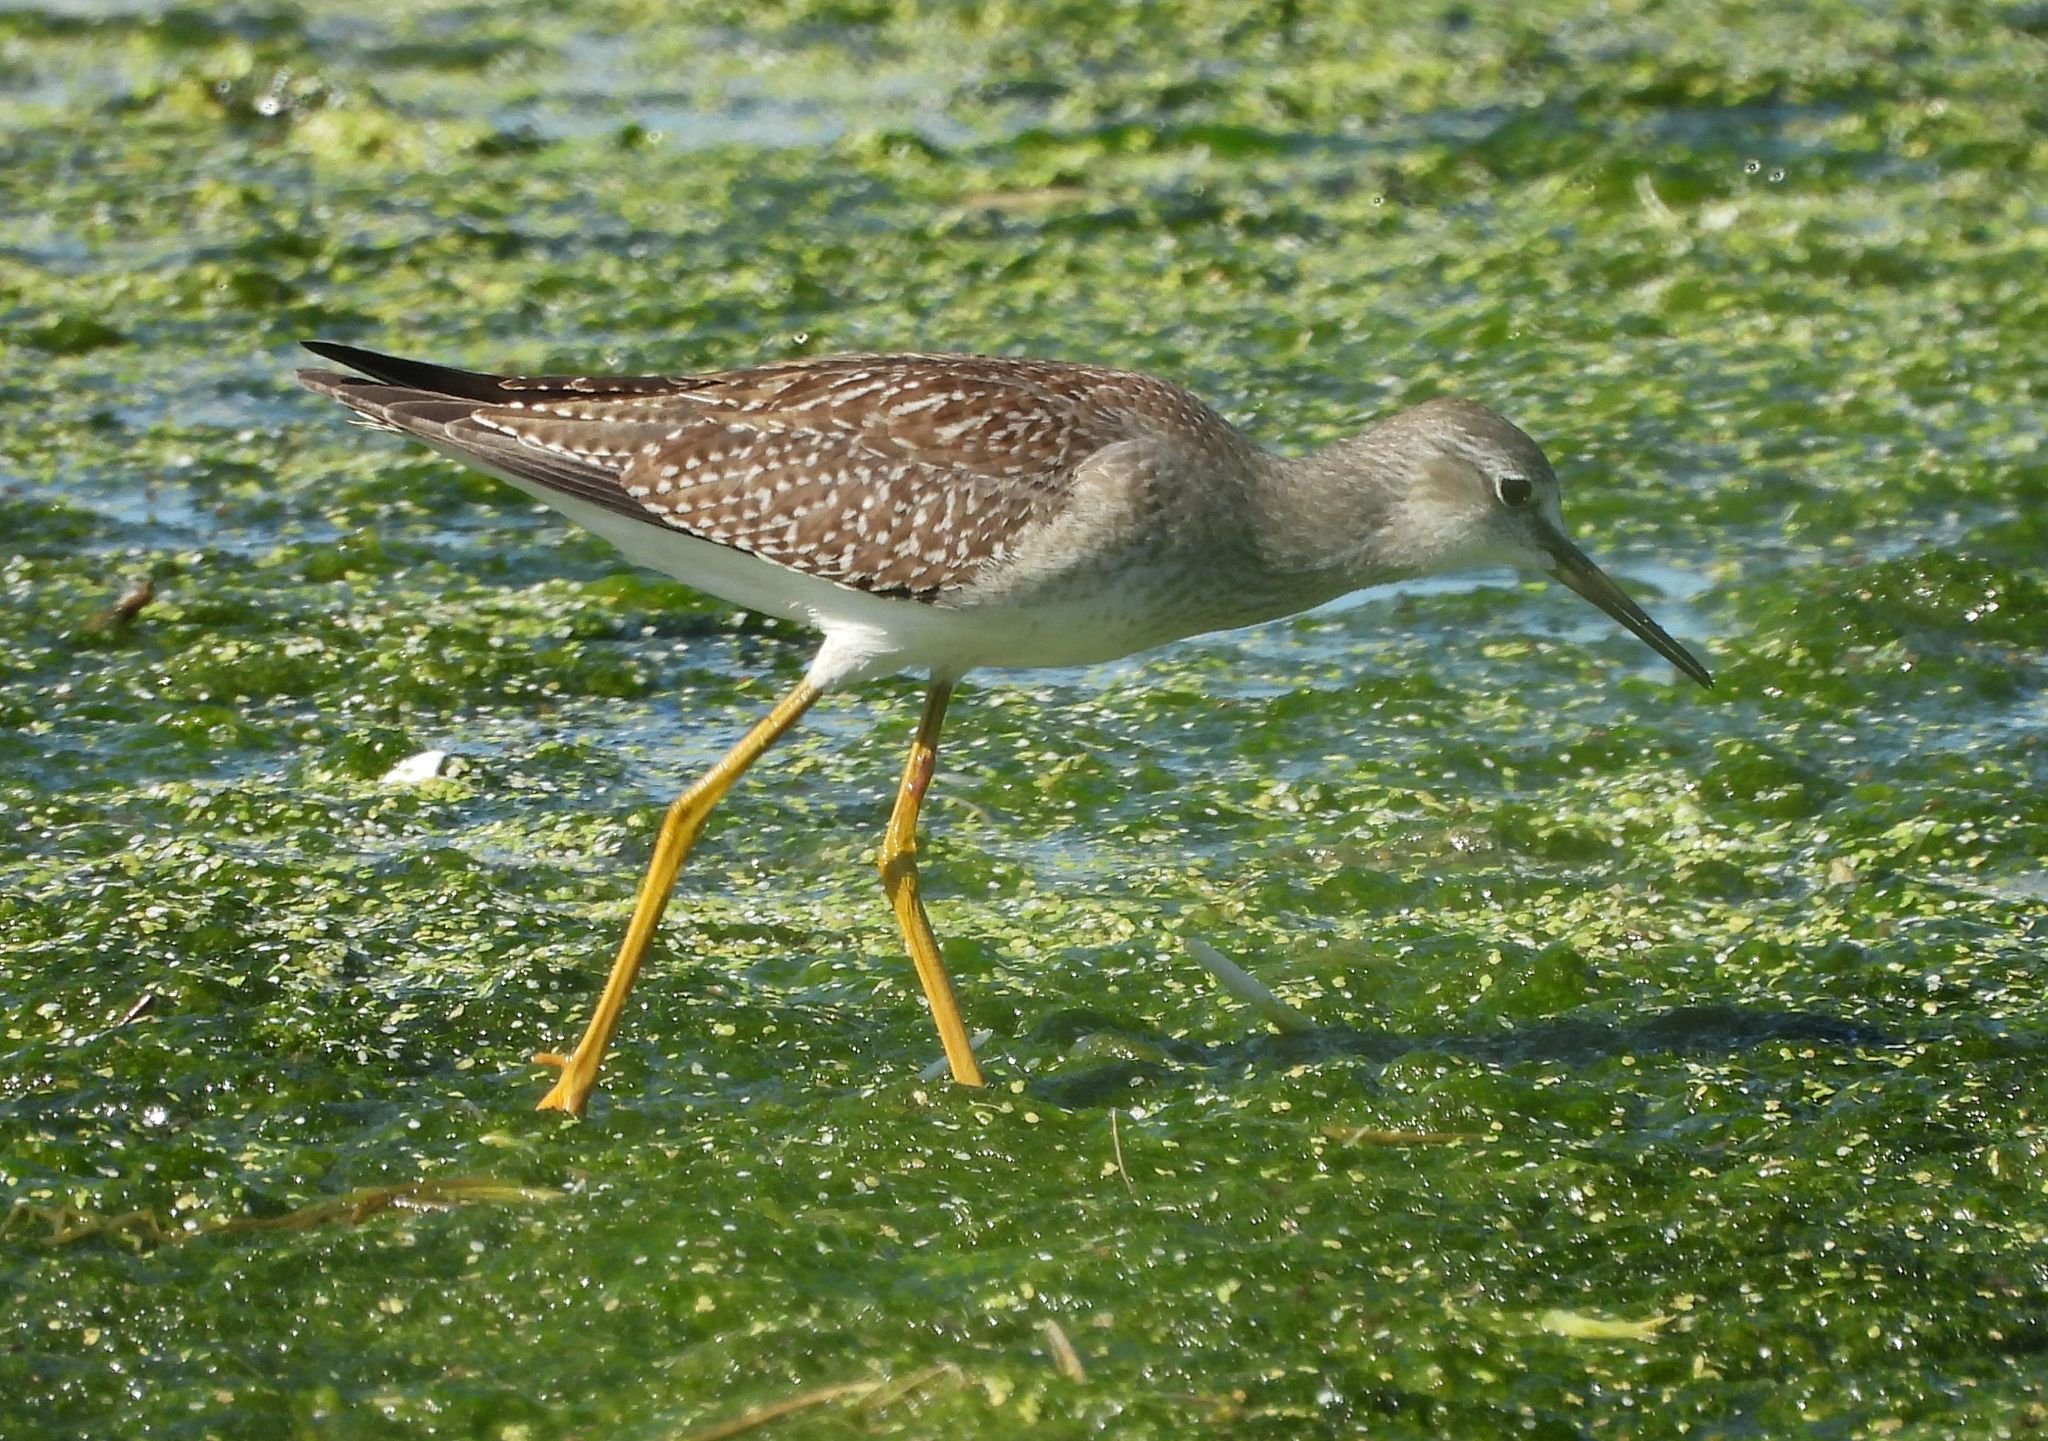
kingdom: Animalia
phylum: Chordata
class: Aves
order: Charadriiformes
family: Scolopacidae
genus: Tringa
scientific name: Tringa flavipes
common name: Lesser yellowlegs
